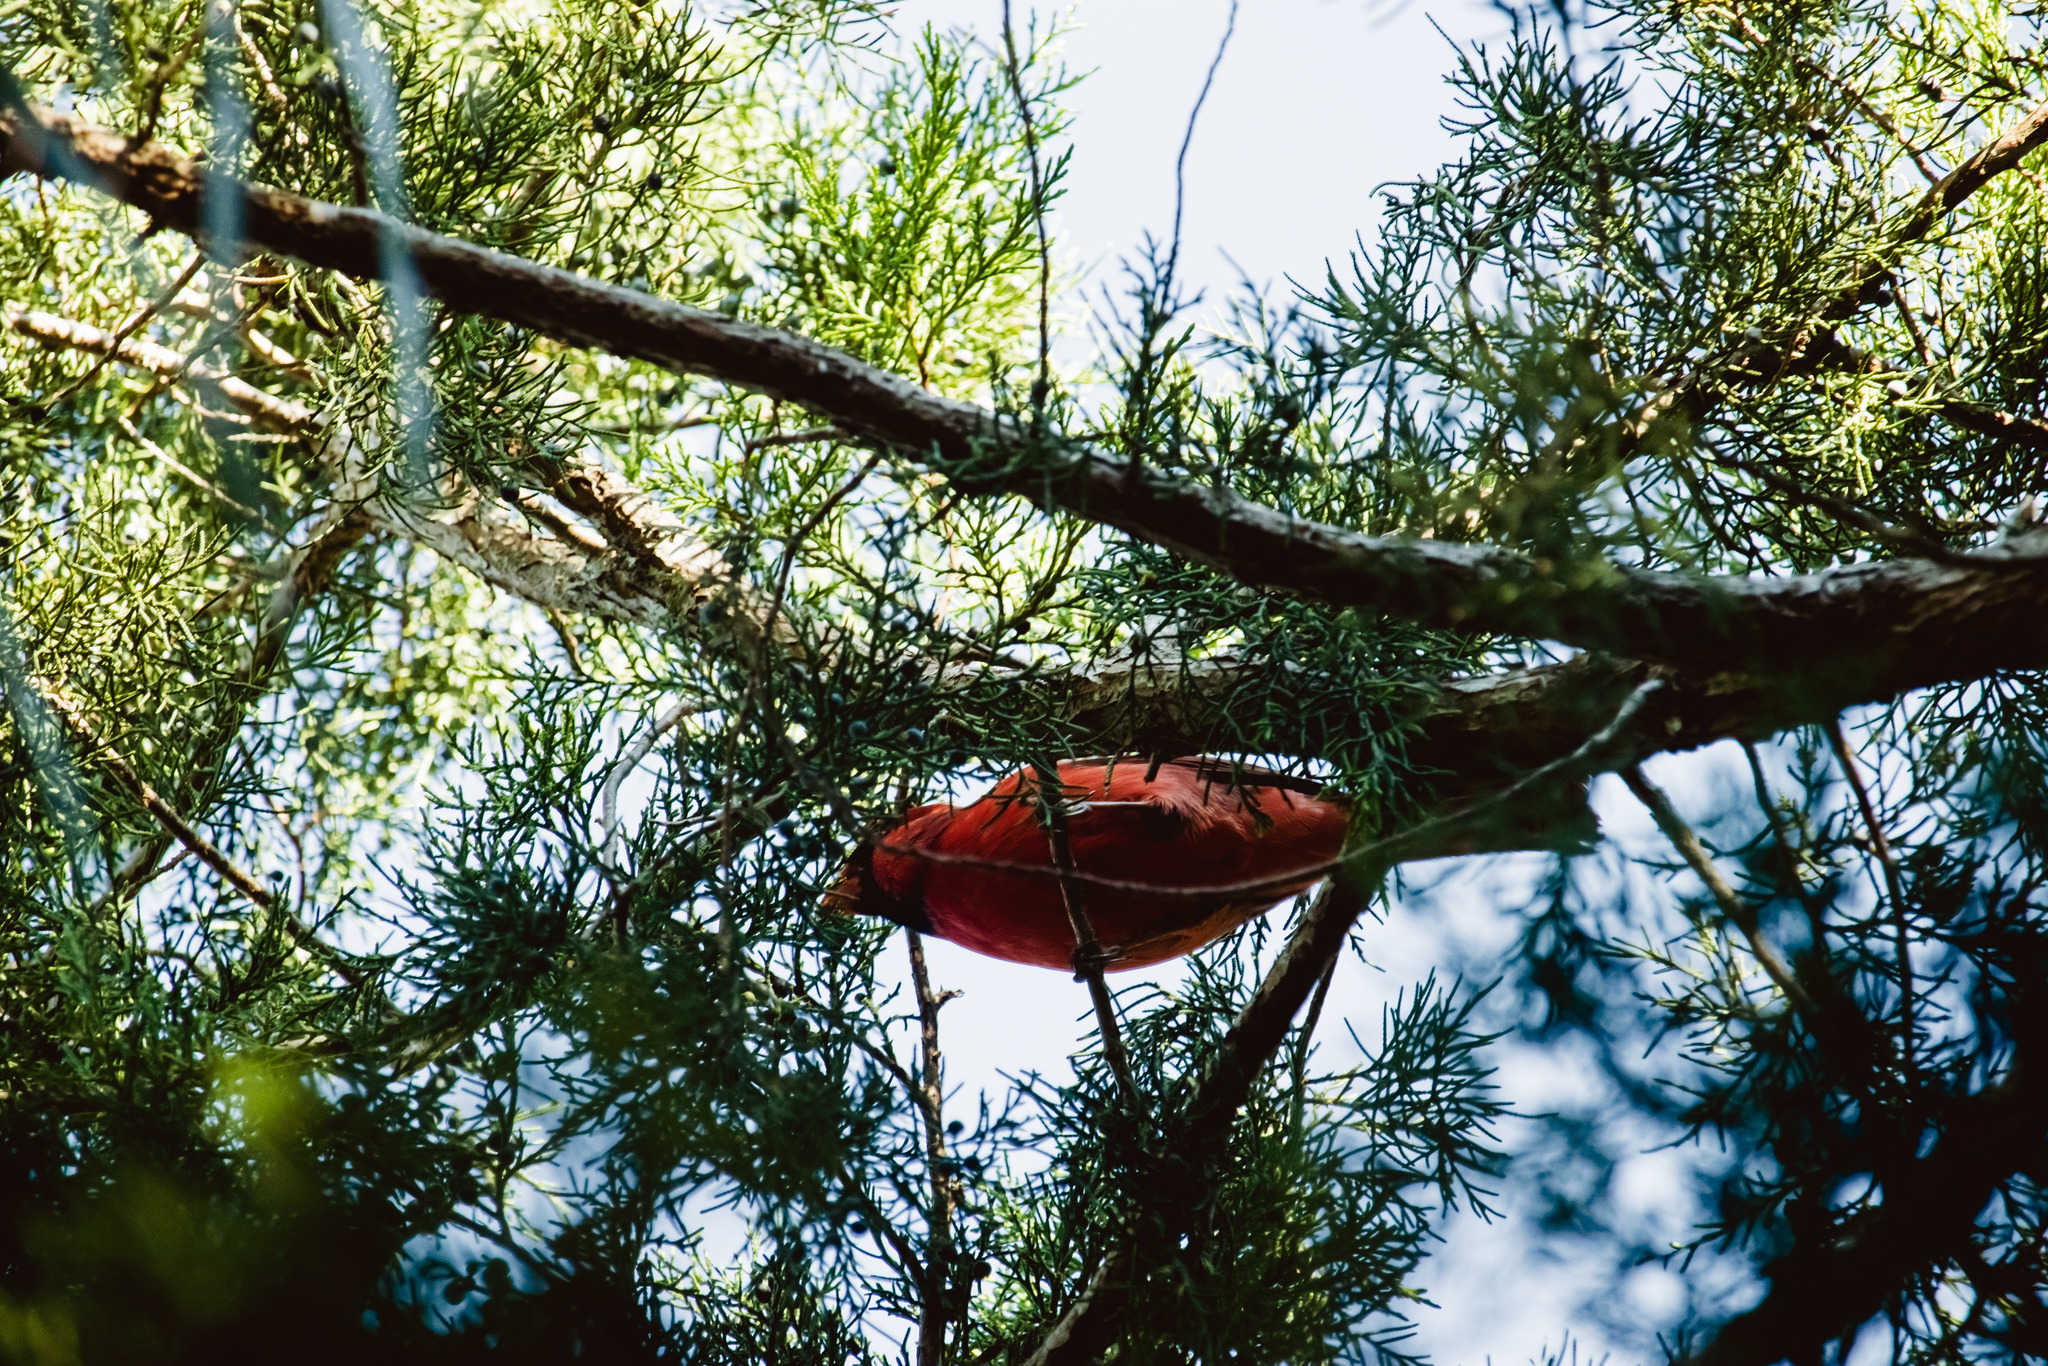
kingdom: Animalia
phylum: Chordata
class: Aves
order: Passeriformes
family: Cardinalidae
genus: Cardinalis
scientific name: Cardinalis cardinalis
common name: Northern cardinal
